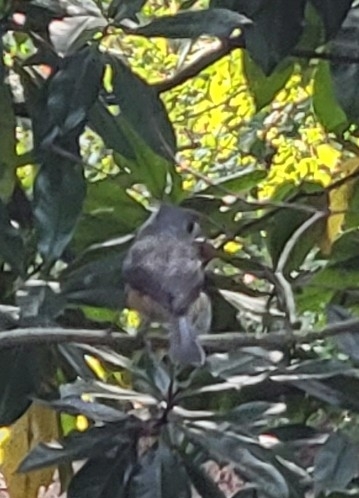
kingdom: Animalia
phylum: Chordata
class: Aves
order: Passeriformes
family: Paridae
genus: Baeolophus
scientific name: Baeolophus bicolor
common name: Tufted titmouse
